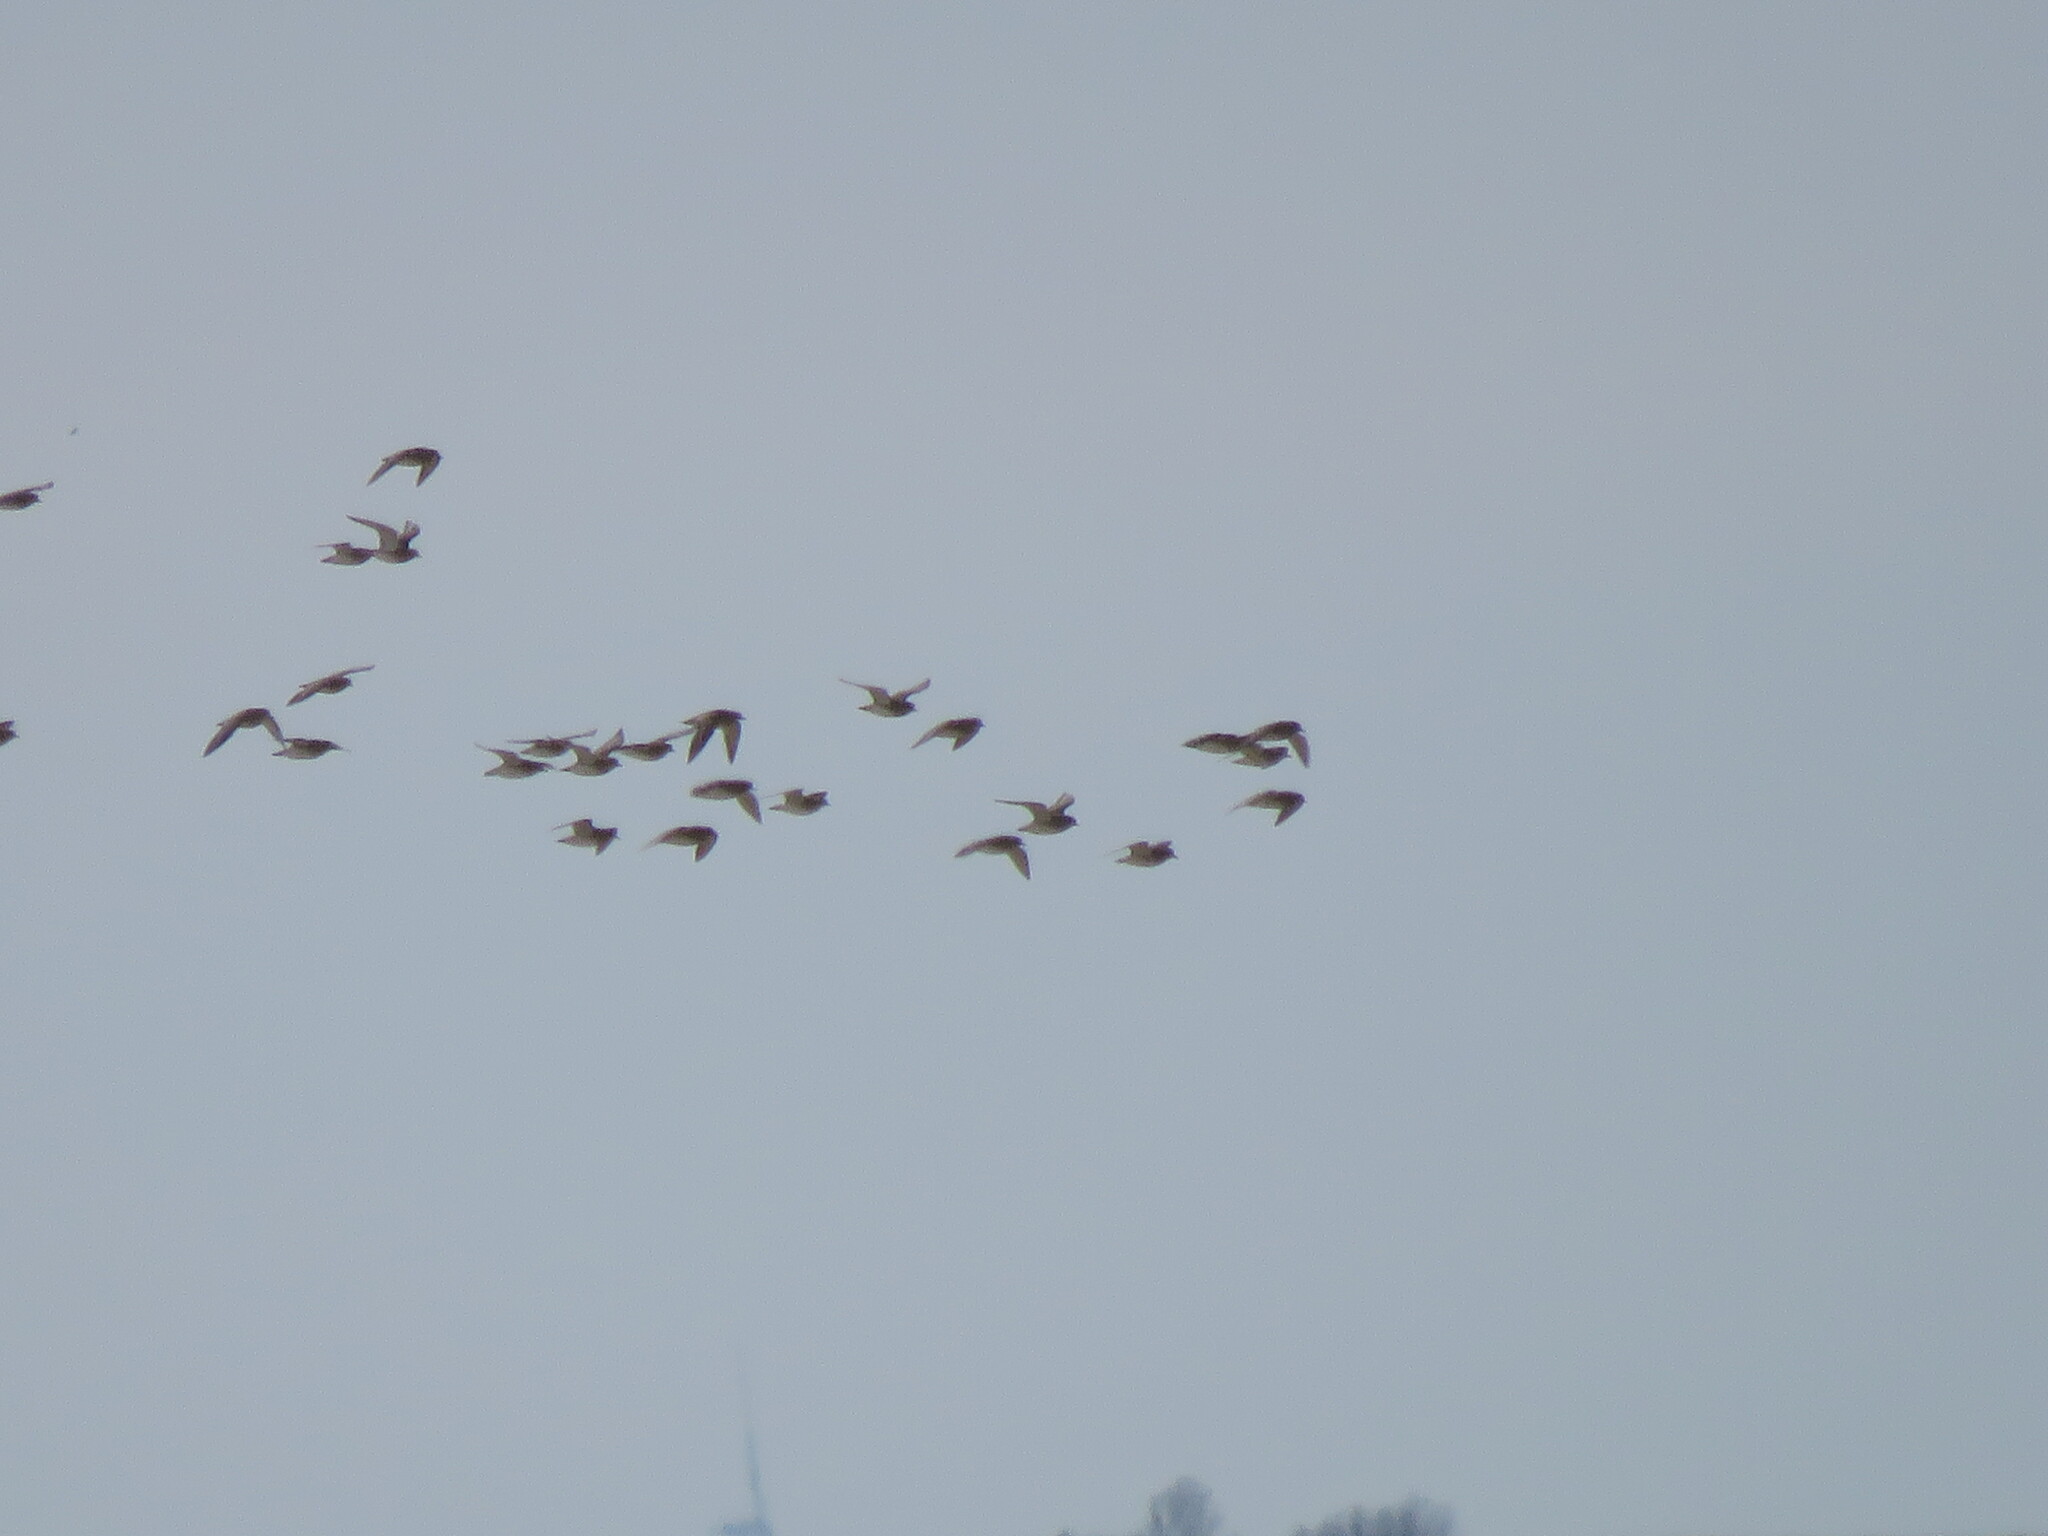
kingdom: Animalia
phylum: Chordata
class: Aves
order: Charadriiformes
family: Charadriidae
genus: Pluvialis
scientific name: Pluvialis apricaria
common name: European golden plover
